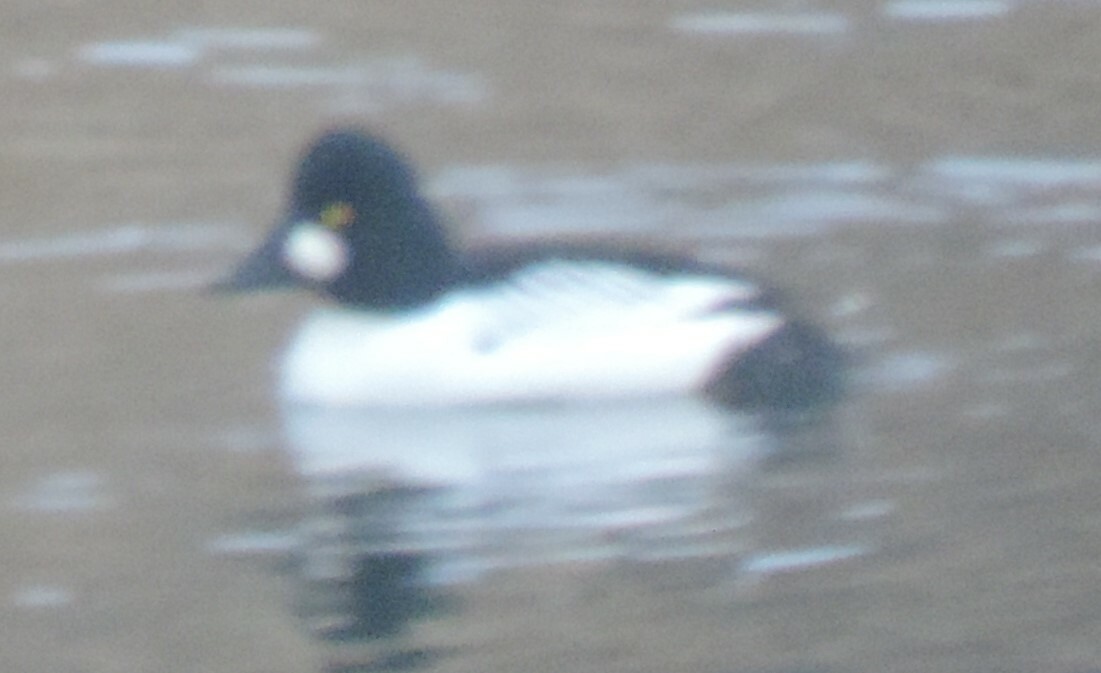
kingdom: Animalia
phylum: Chordata
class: Aves
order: Anseriformes
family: Anatidae
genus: Bucephala
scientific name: Bucephala clangula
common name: Common goldeneye
